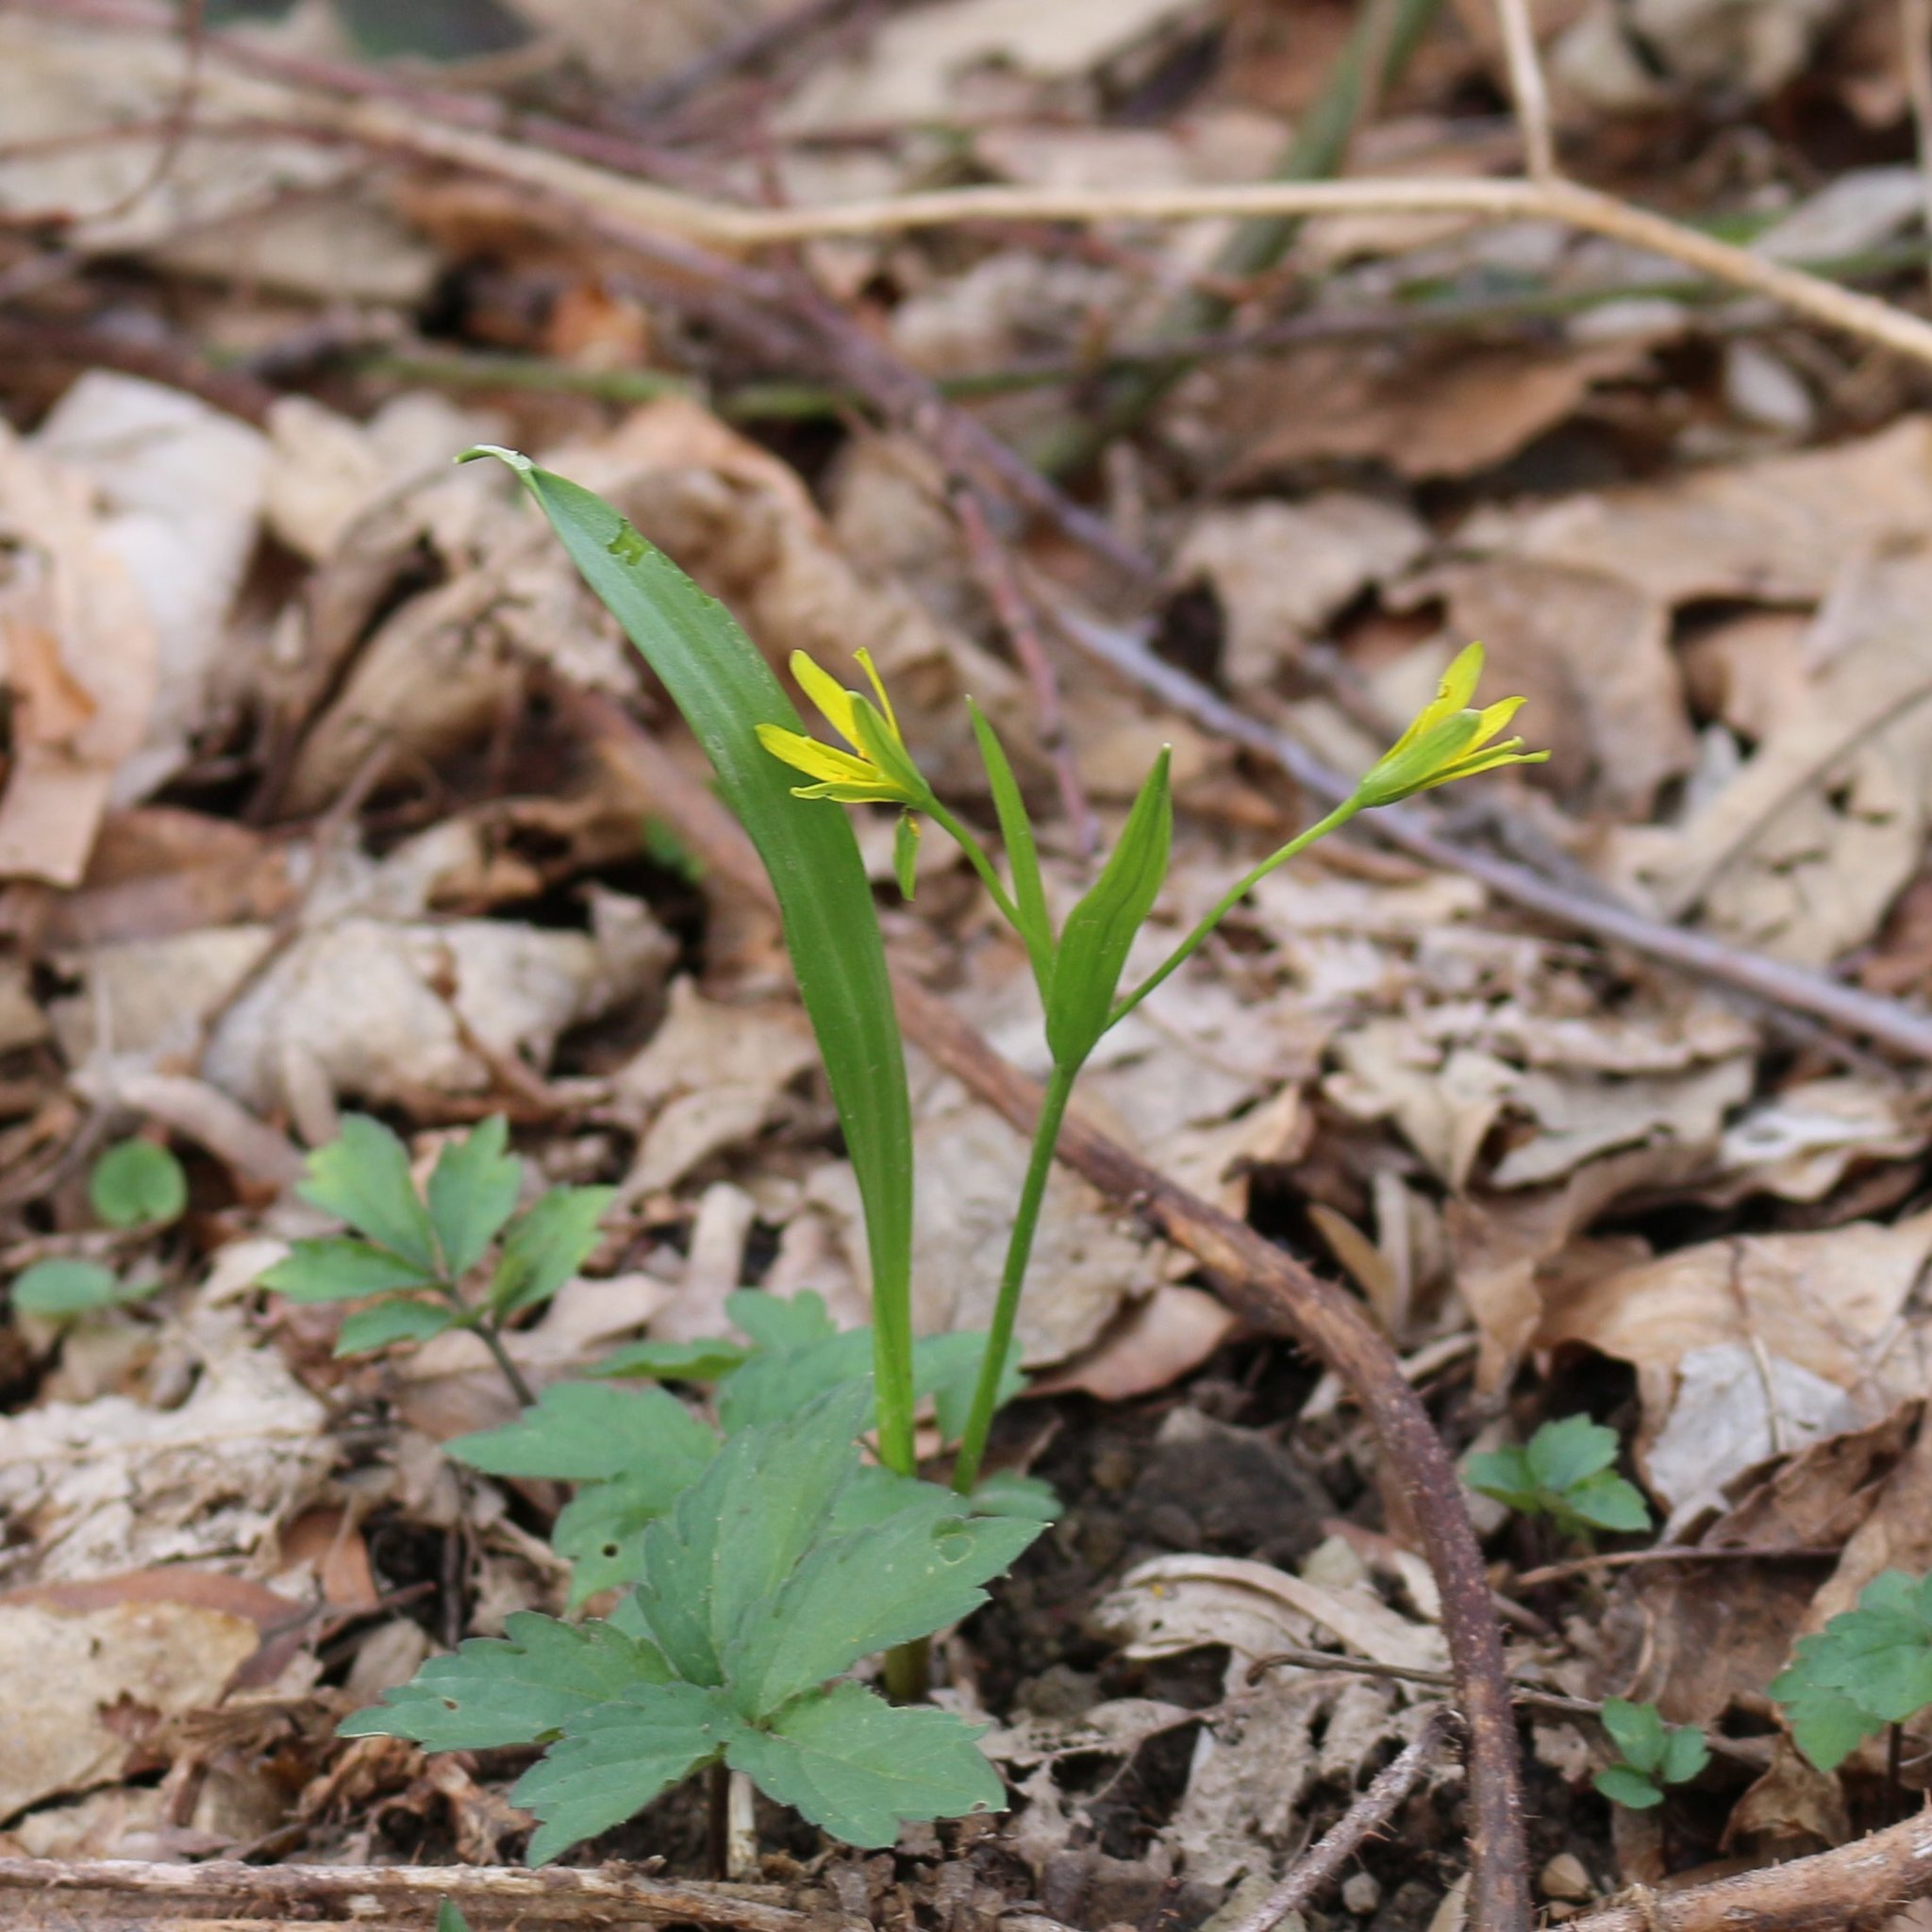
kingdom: Plantae
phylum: Tracheophyta
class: Liliopsida
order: Liliales
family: Liliaceae
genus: Gagea
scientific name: Gagea lutea
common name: Yellow star-of-bethlehem
